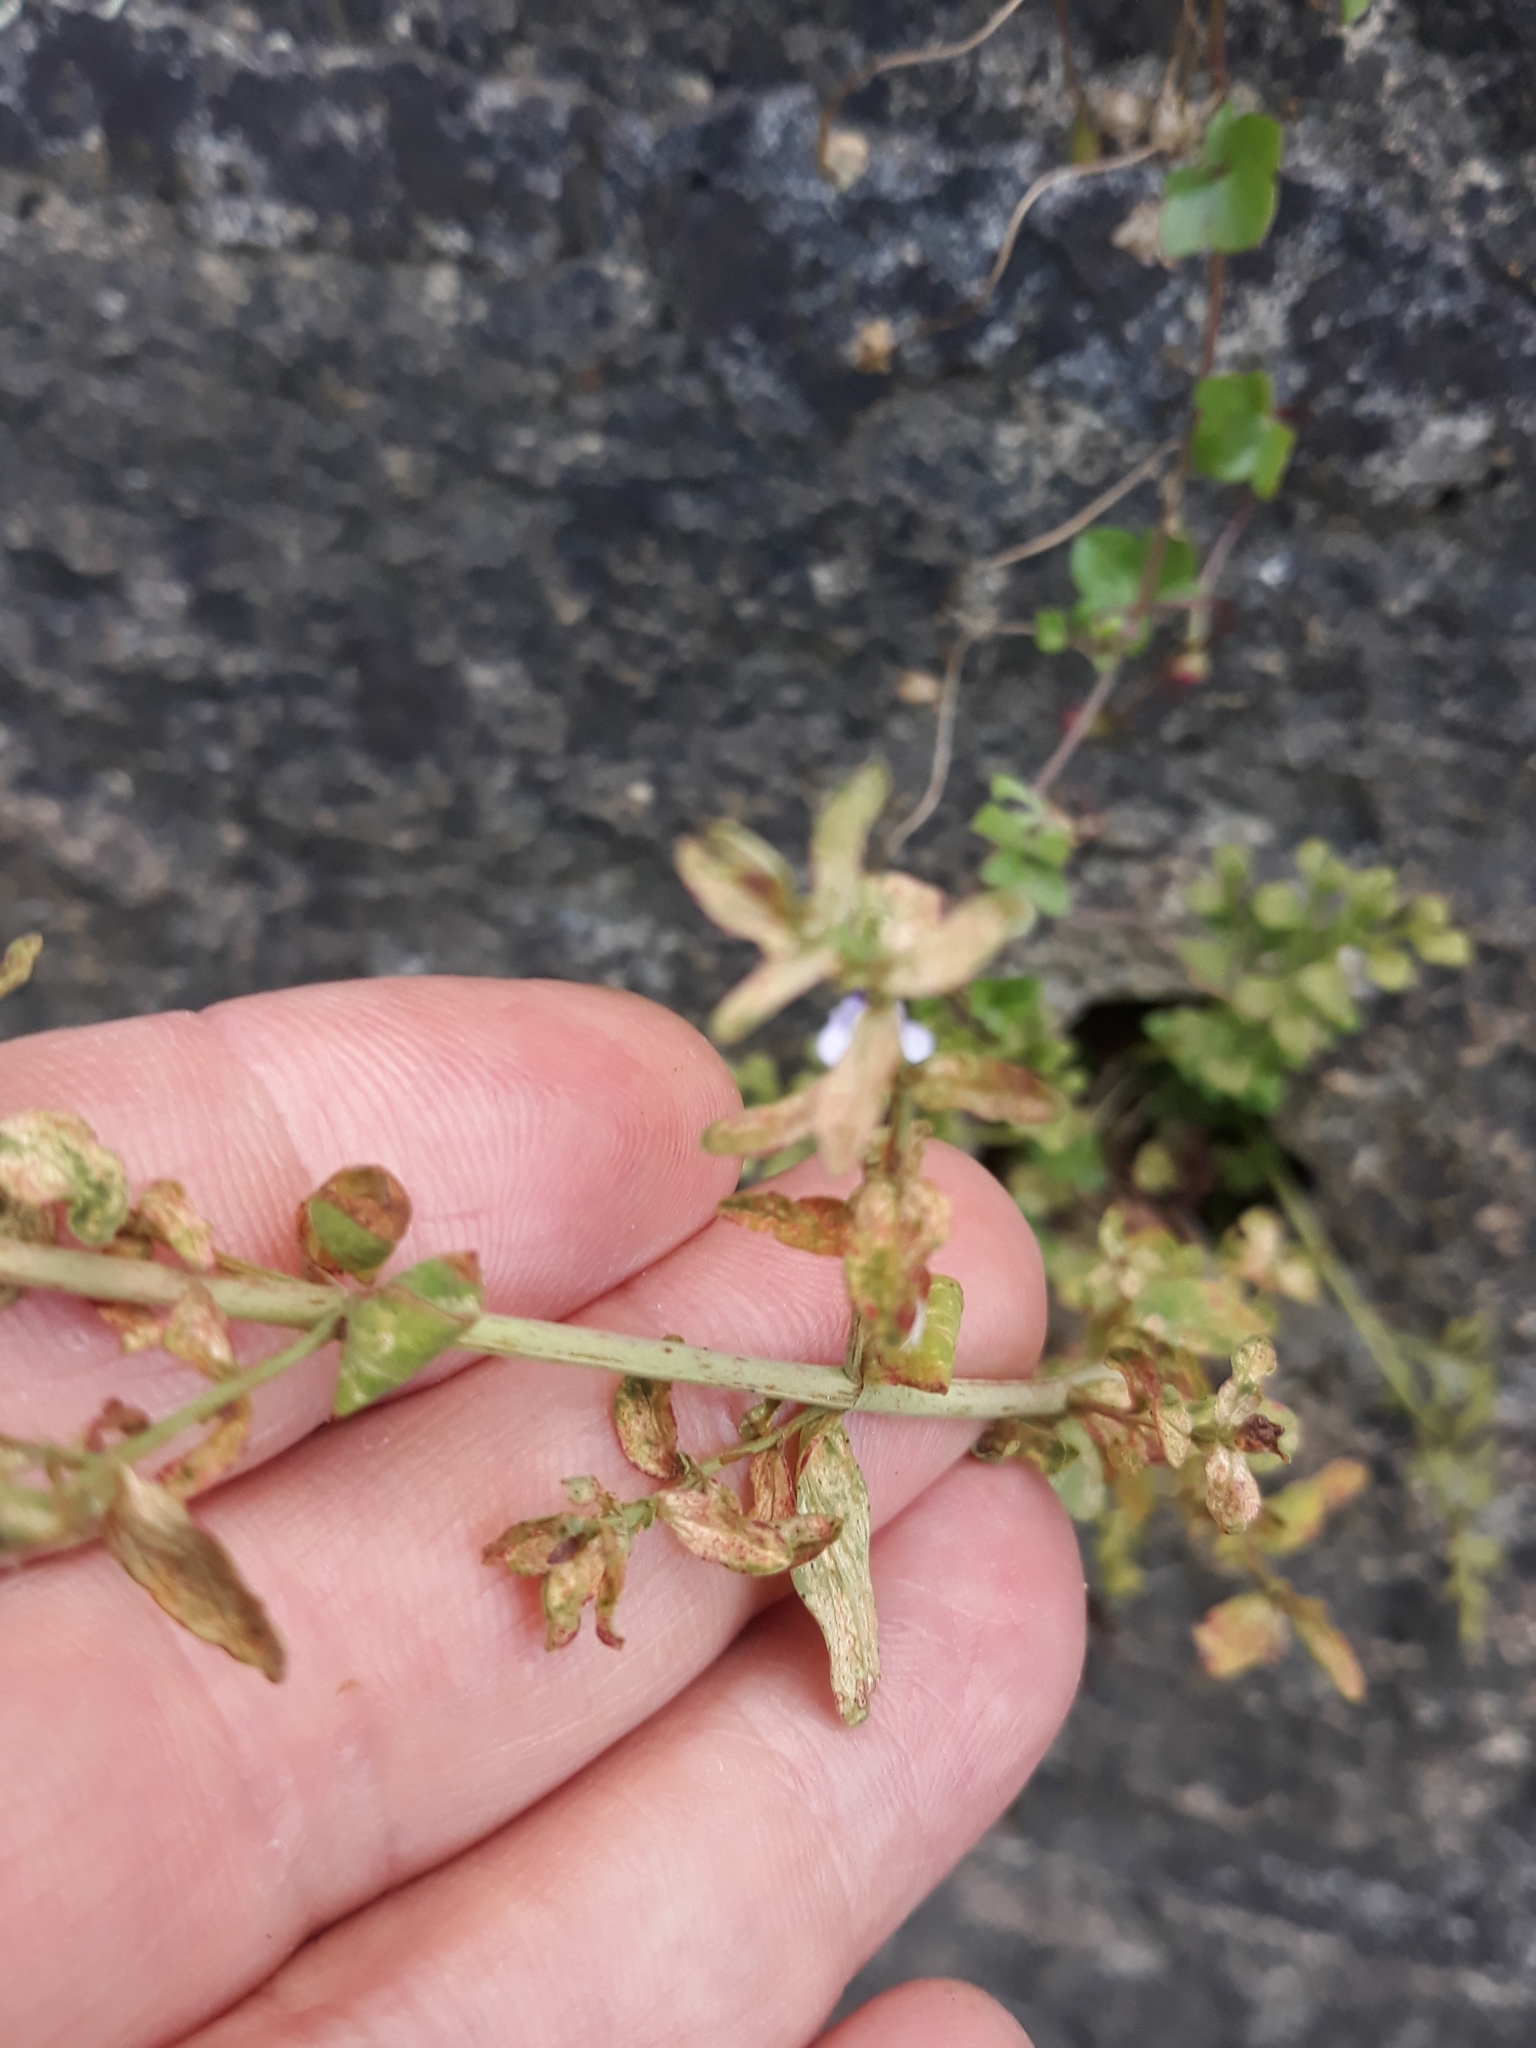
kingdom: Plantae
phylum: Tracheophyta
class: Magnoliopsida
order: Malpighiales
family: Hypericaceae
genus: Hypericum
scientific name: Hypericum perforatum
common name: Common st. johnswort
